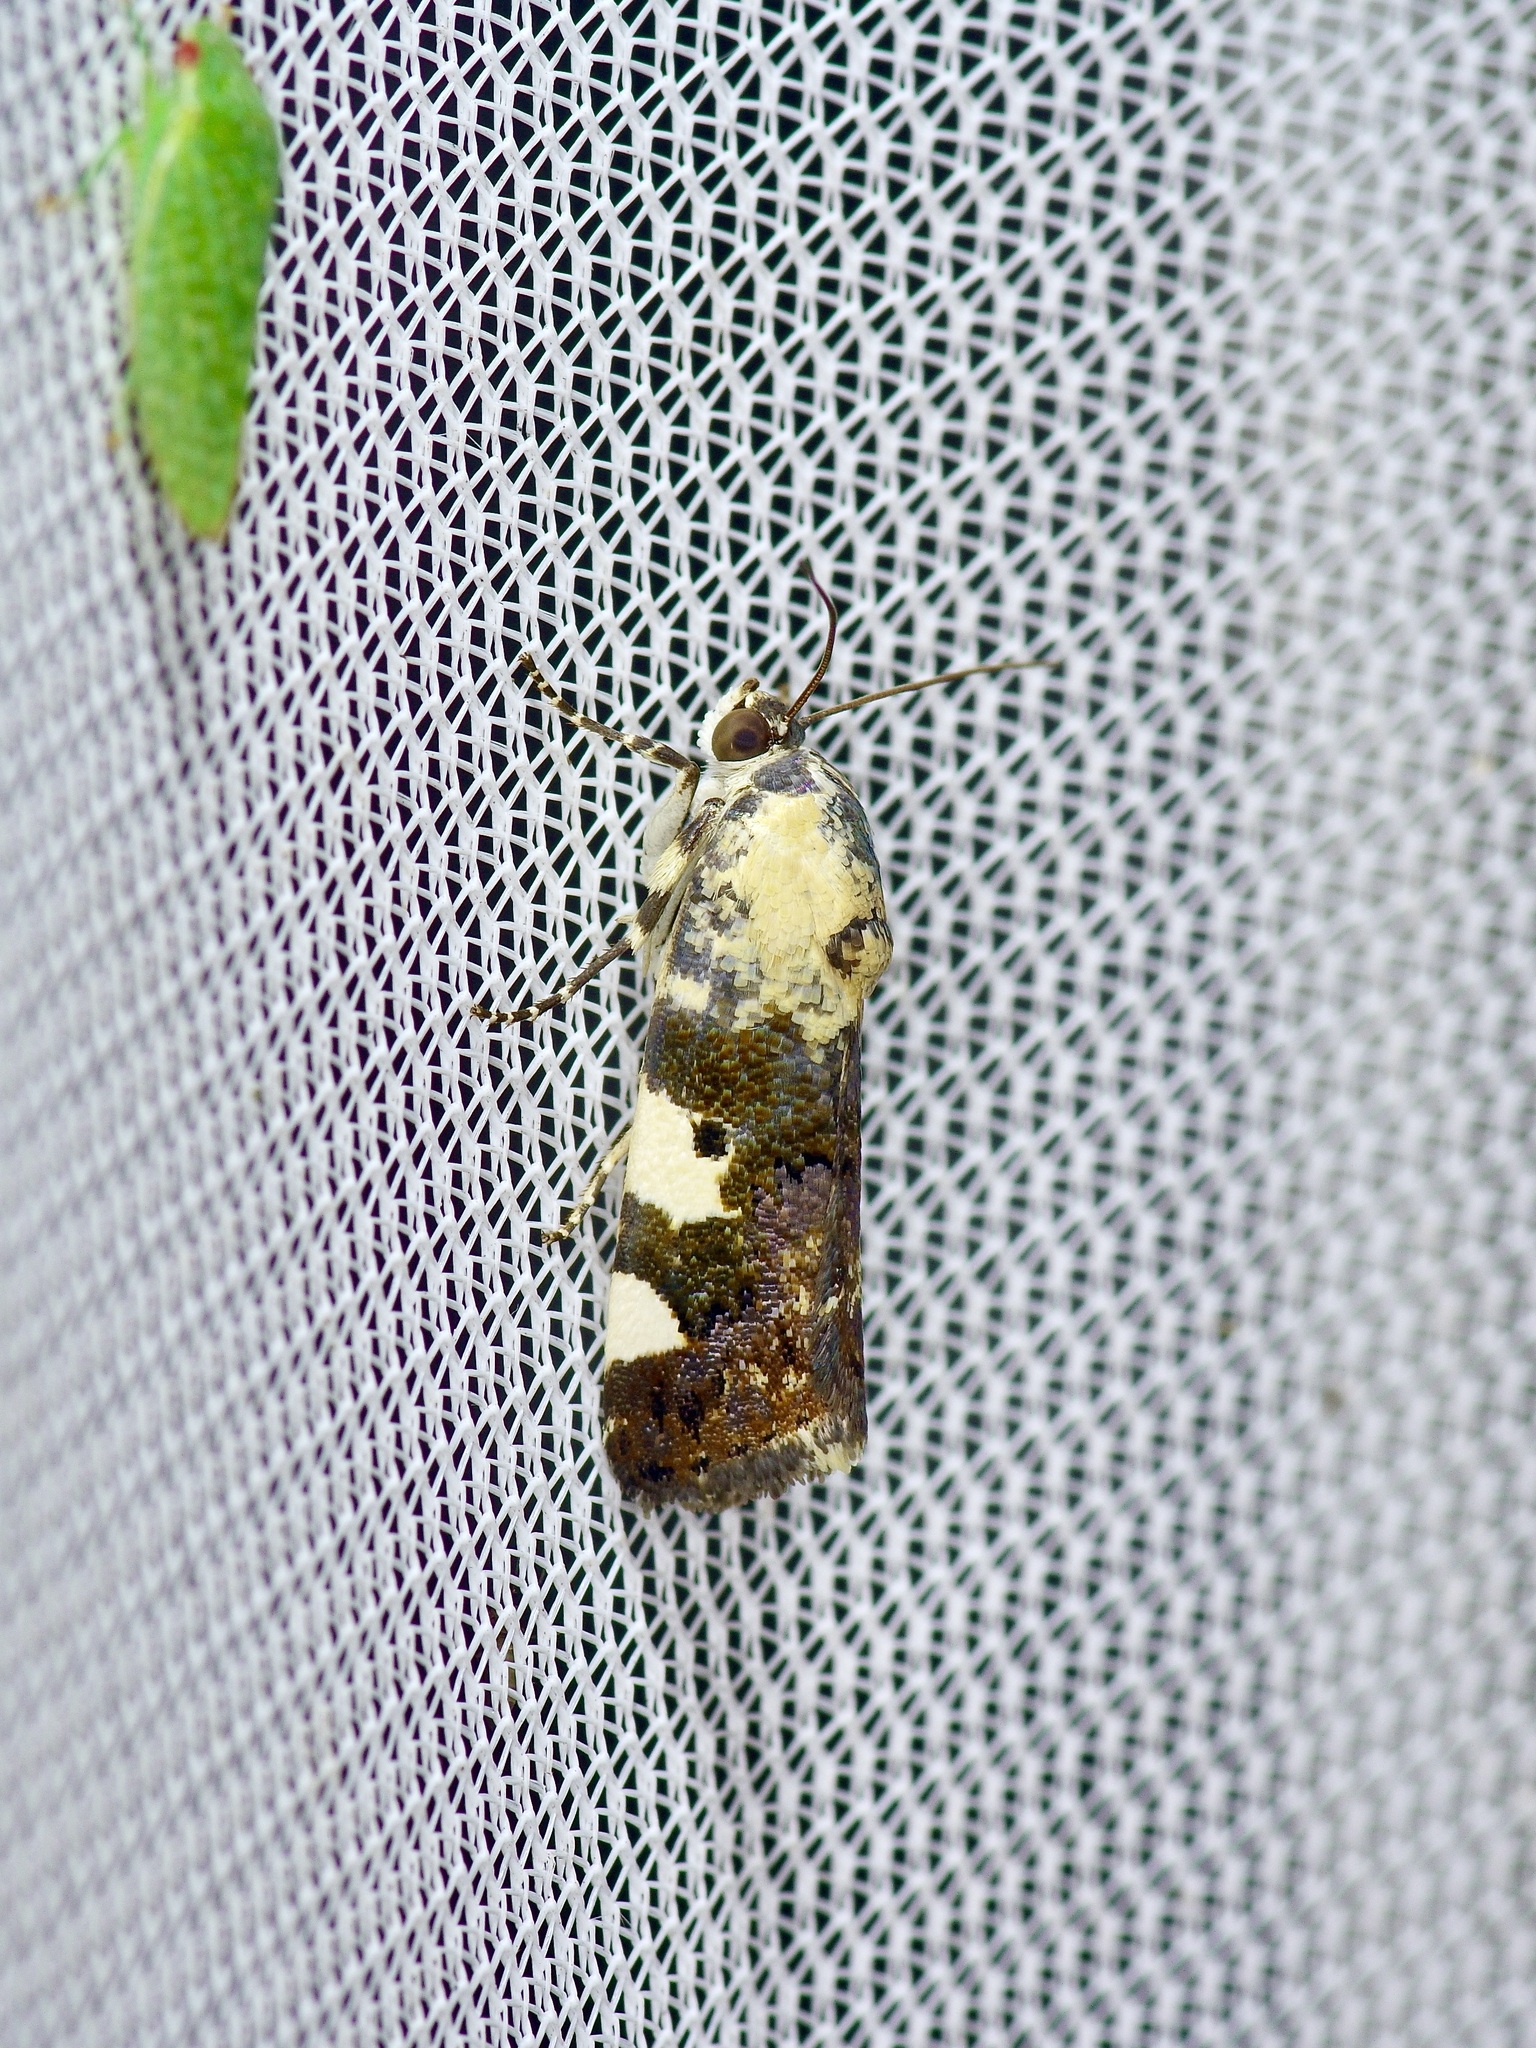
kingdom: Animalia
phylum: Arthropoda
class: Insecta
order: Lepidoptera
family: Noctuidae
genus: Acontia
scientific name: Acontia aprica
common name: Nun
